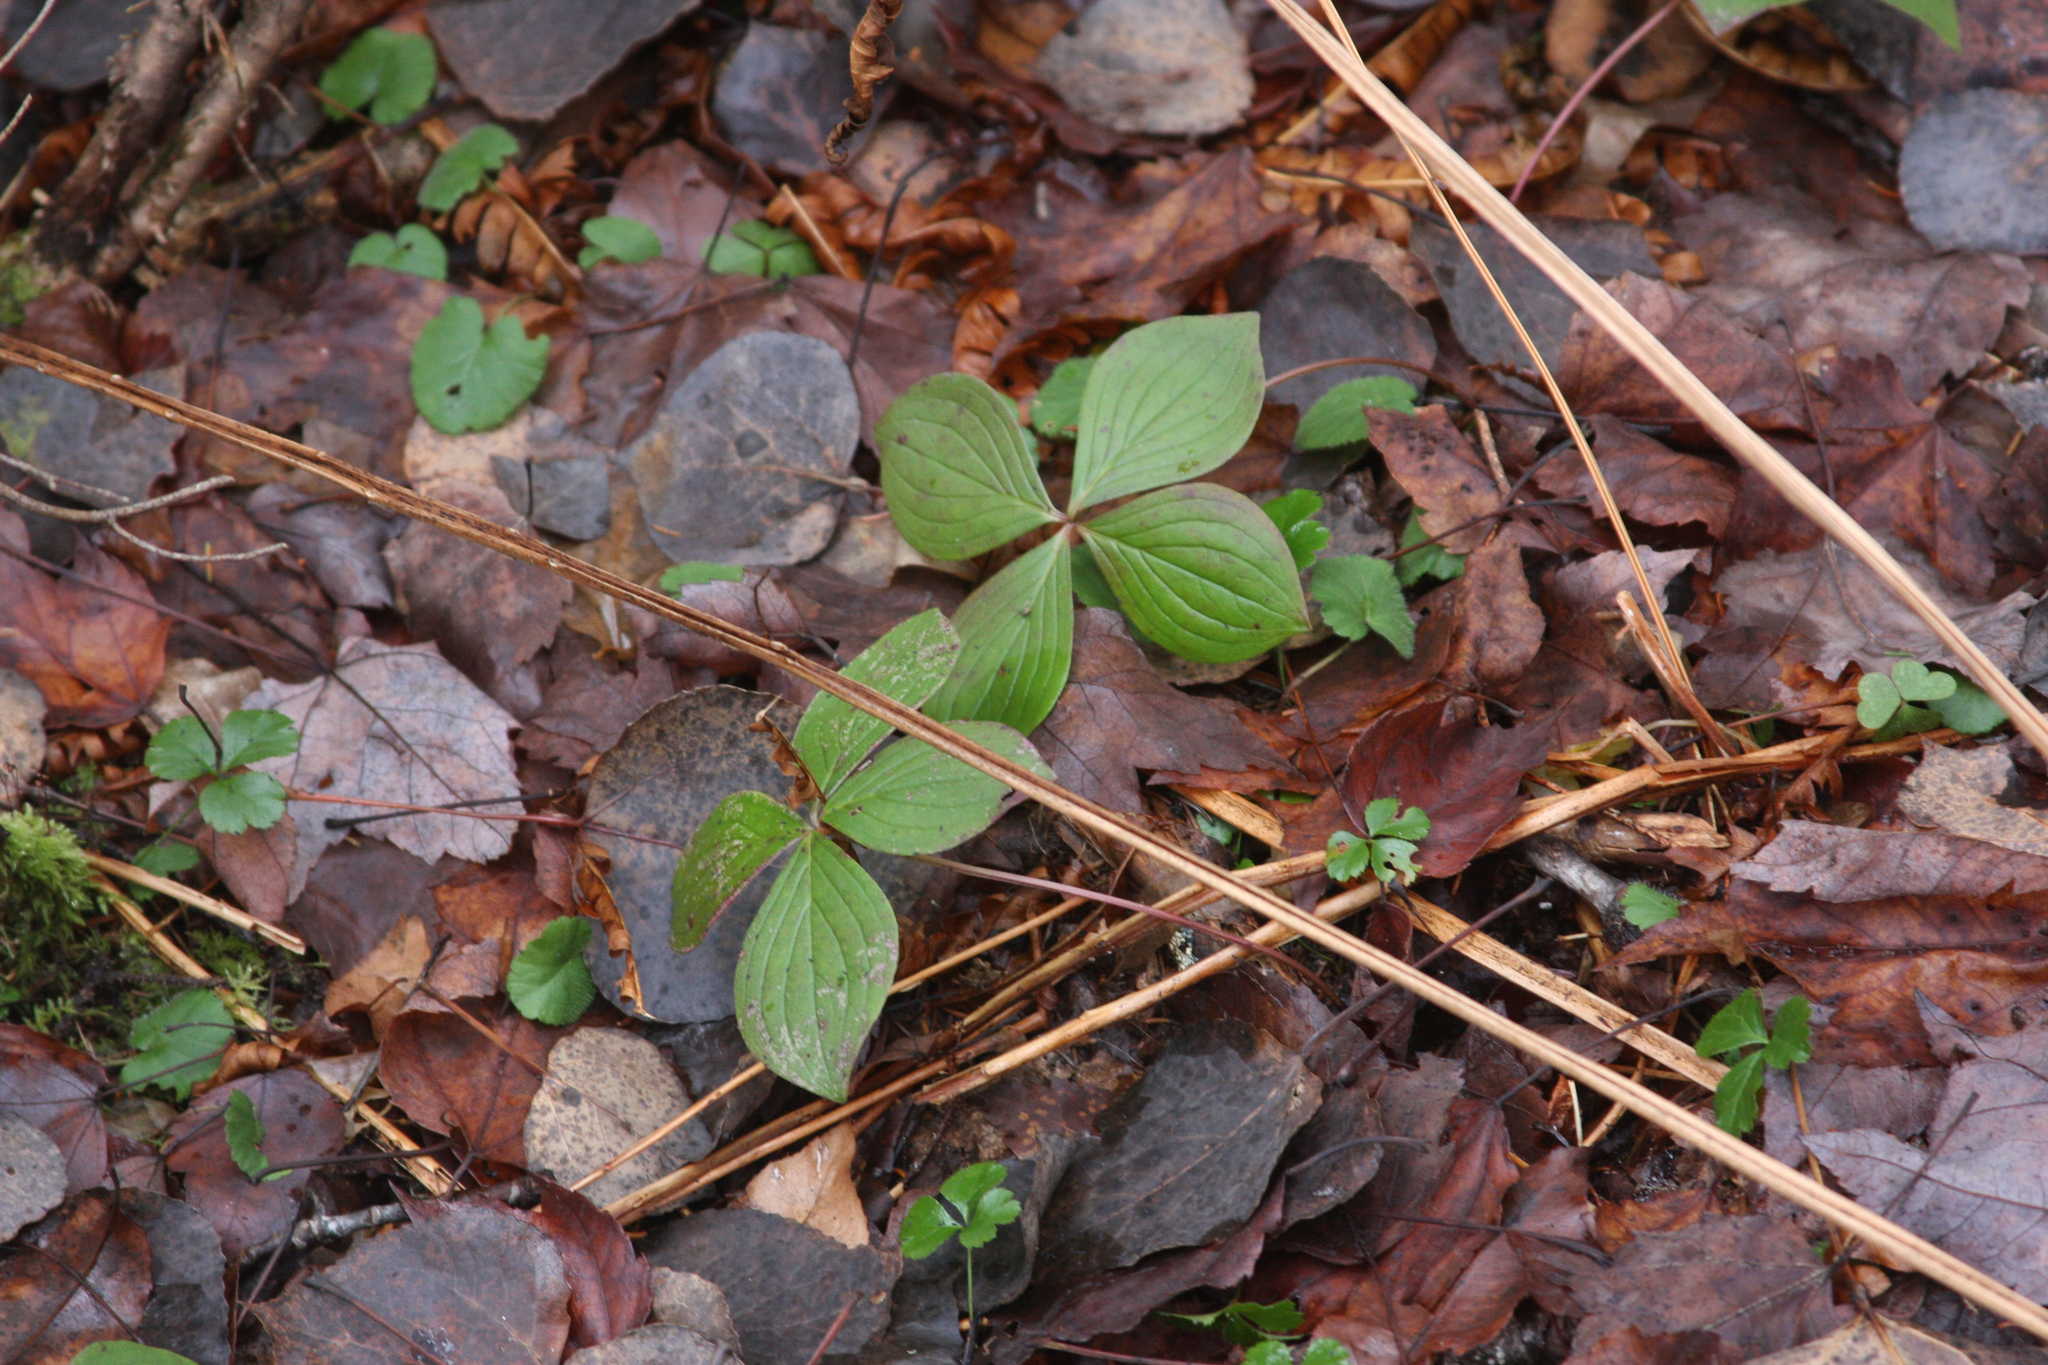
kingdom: Plantae
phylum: Tracheophyta
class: Magnoliopsida
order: Cornales
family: Cornaceae
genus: Cornus
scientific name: Cornus canadensis
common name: Creeping dogwood
